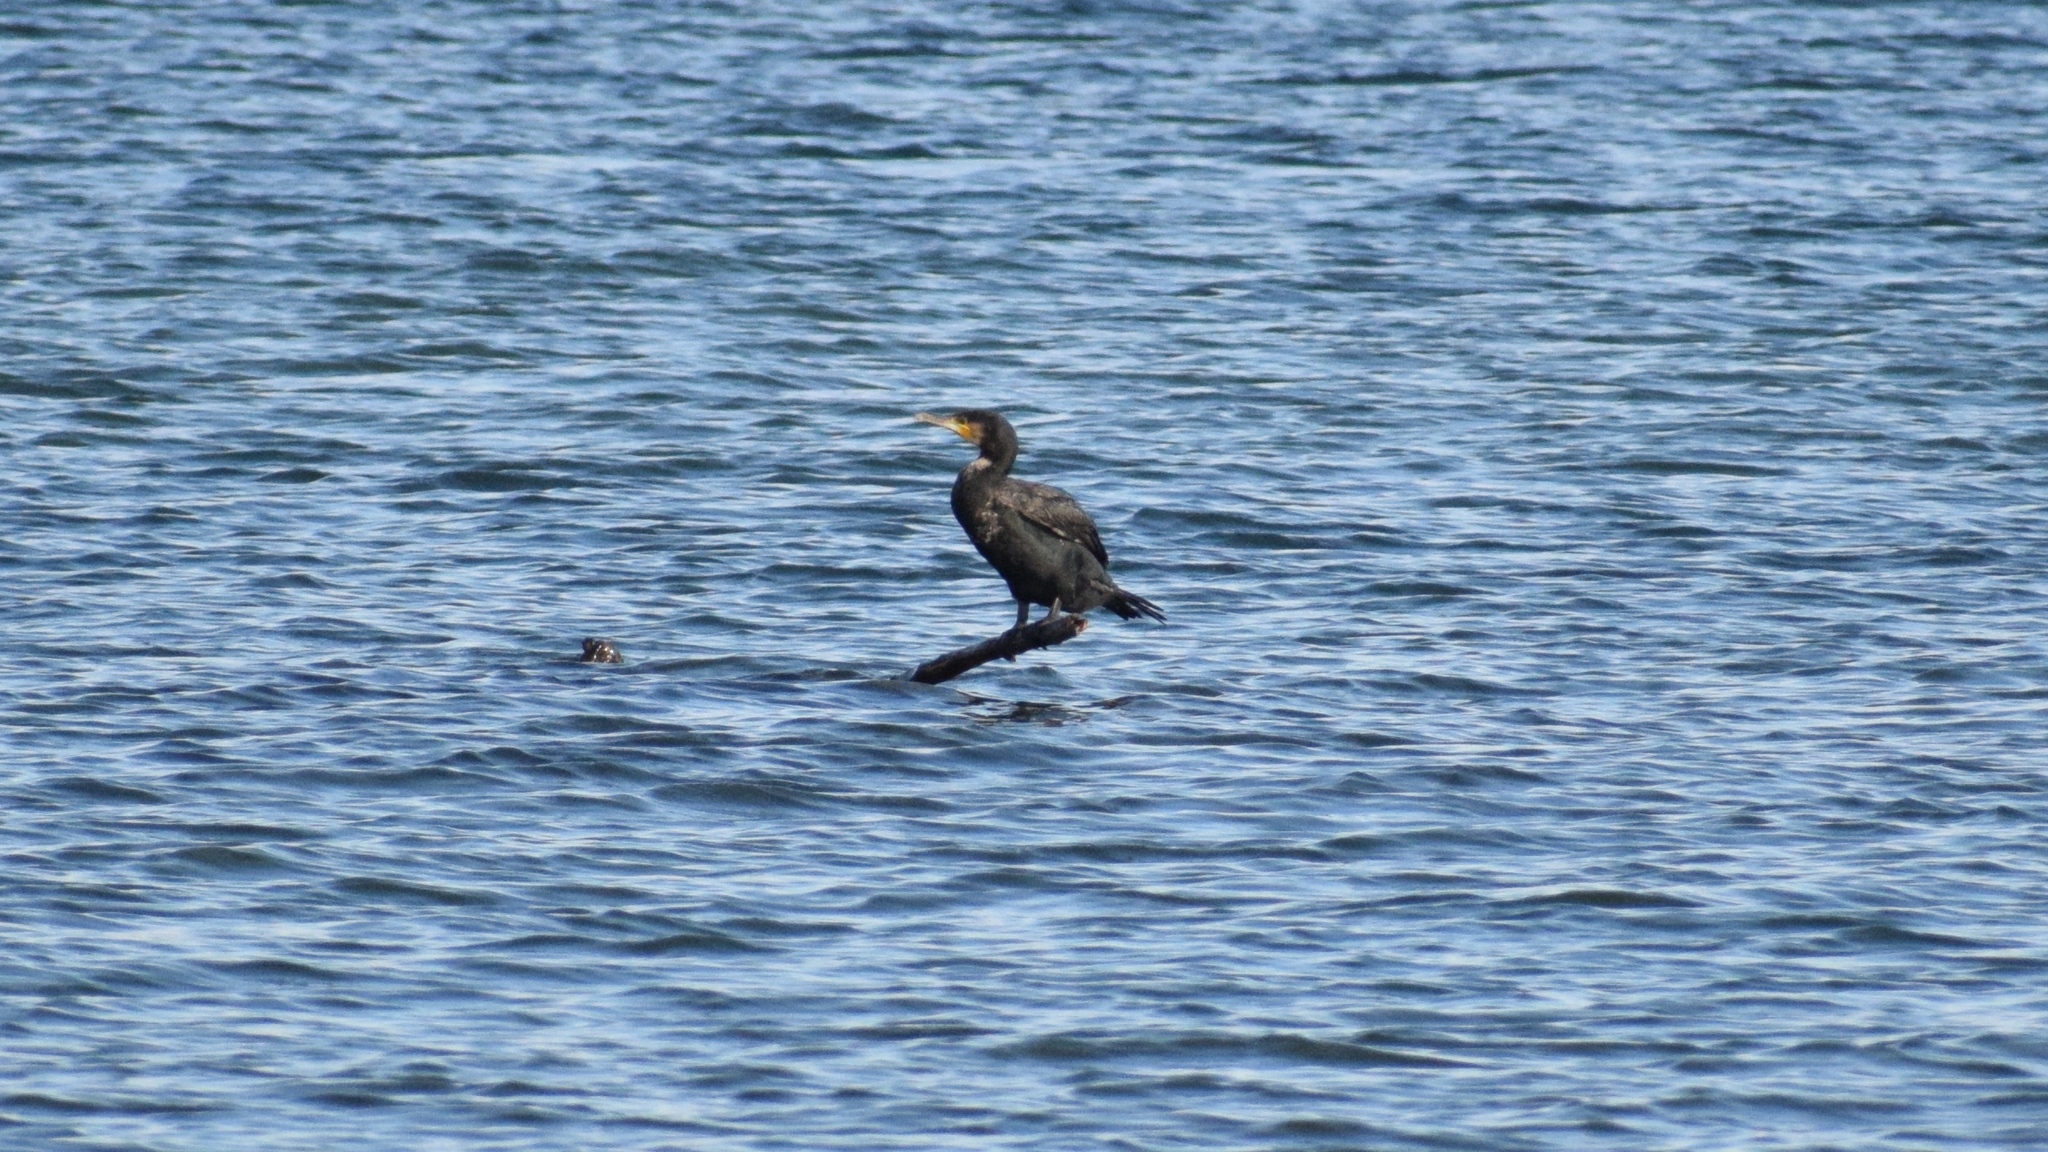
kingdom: Animalia
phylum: Chordata
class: Aves
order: Suliformes
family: Phalacrocoracidae
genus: Phalacrocorax
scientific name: Phalacrocorax carbo
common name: Great cormorant
